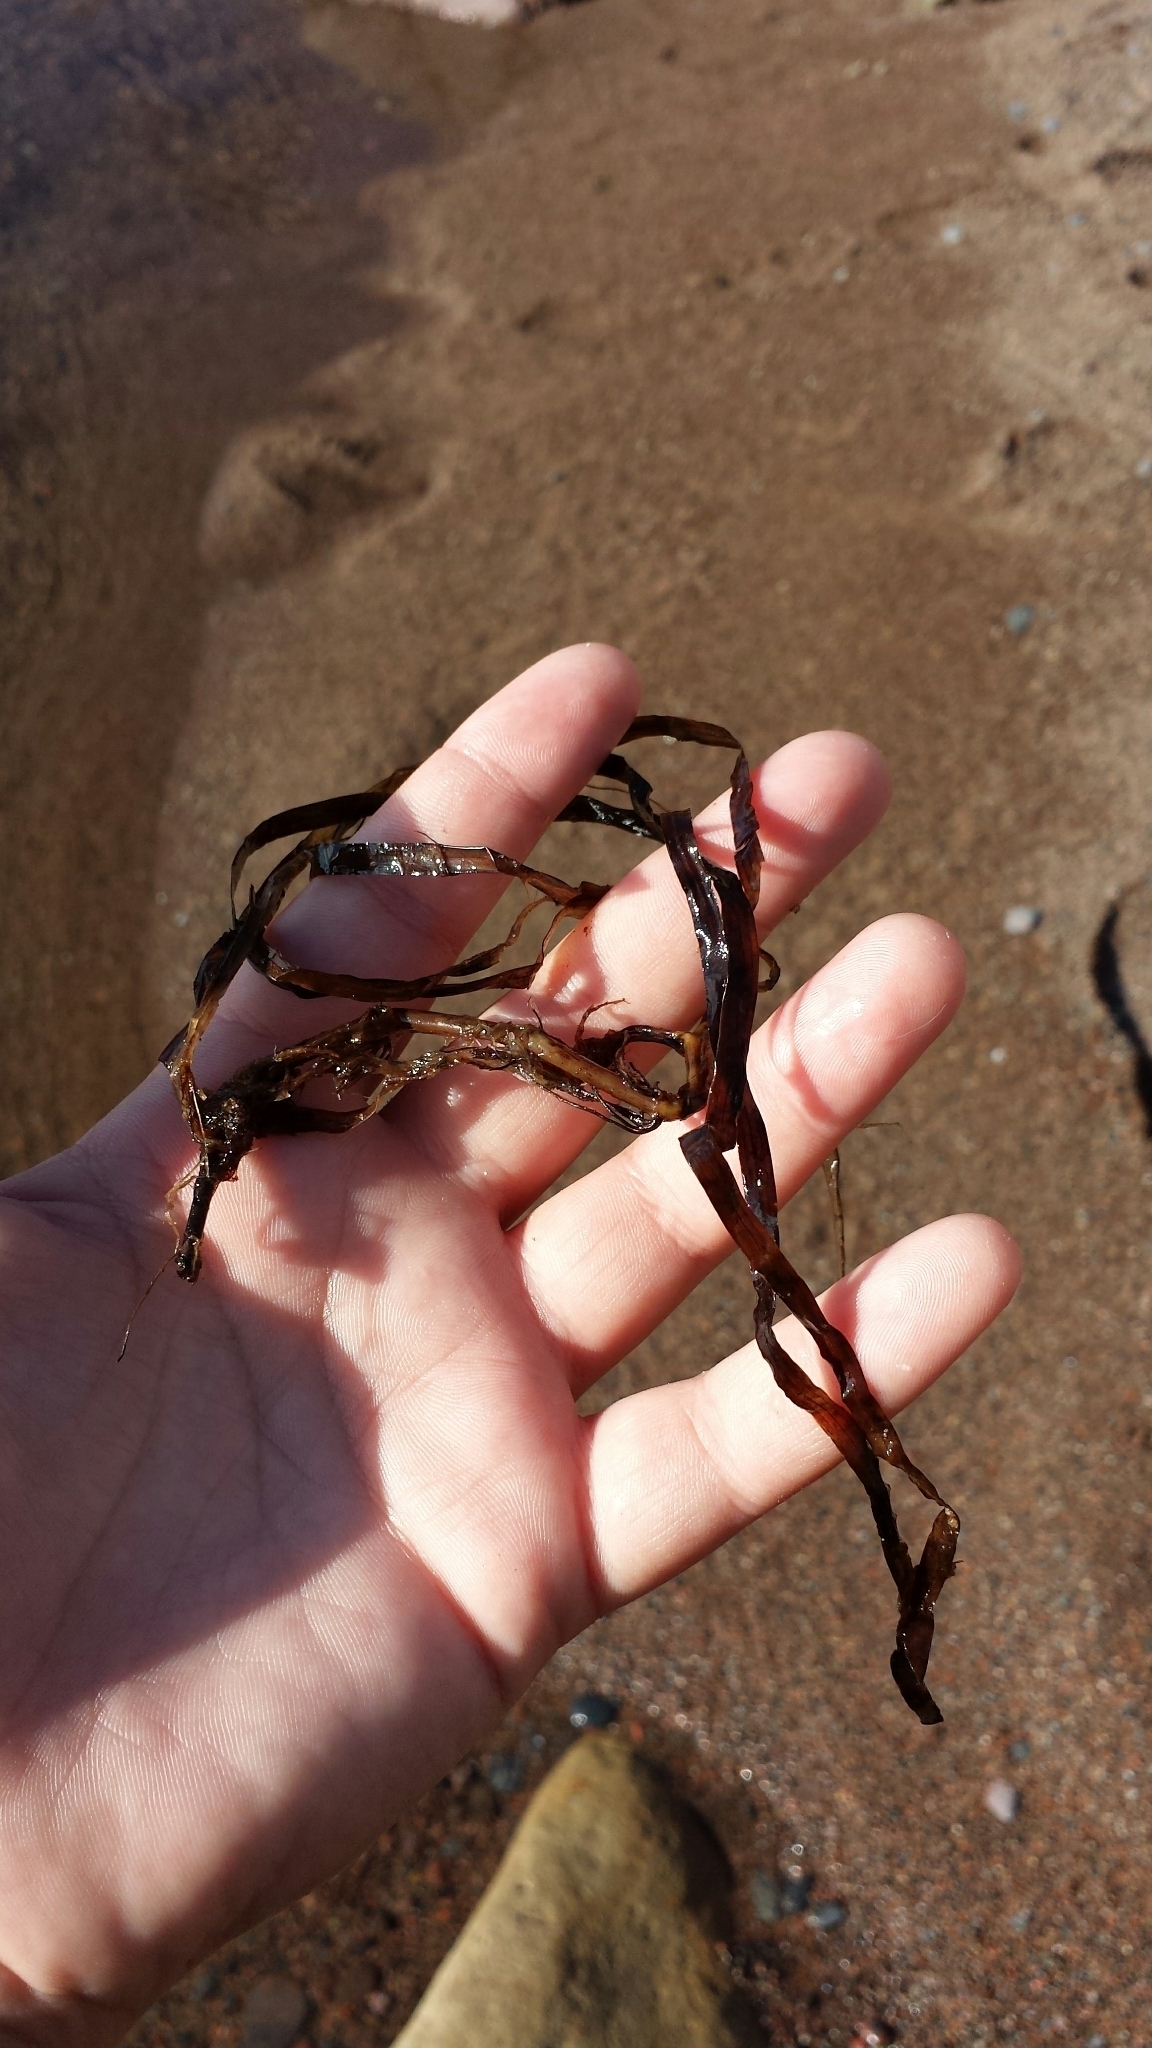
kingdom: Plantae
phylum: Tracheophyta
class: Liliopsida
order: Alismatales
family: Zosteraceae
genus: Zostera
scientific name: Zostera marina
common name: Eelgrass
